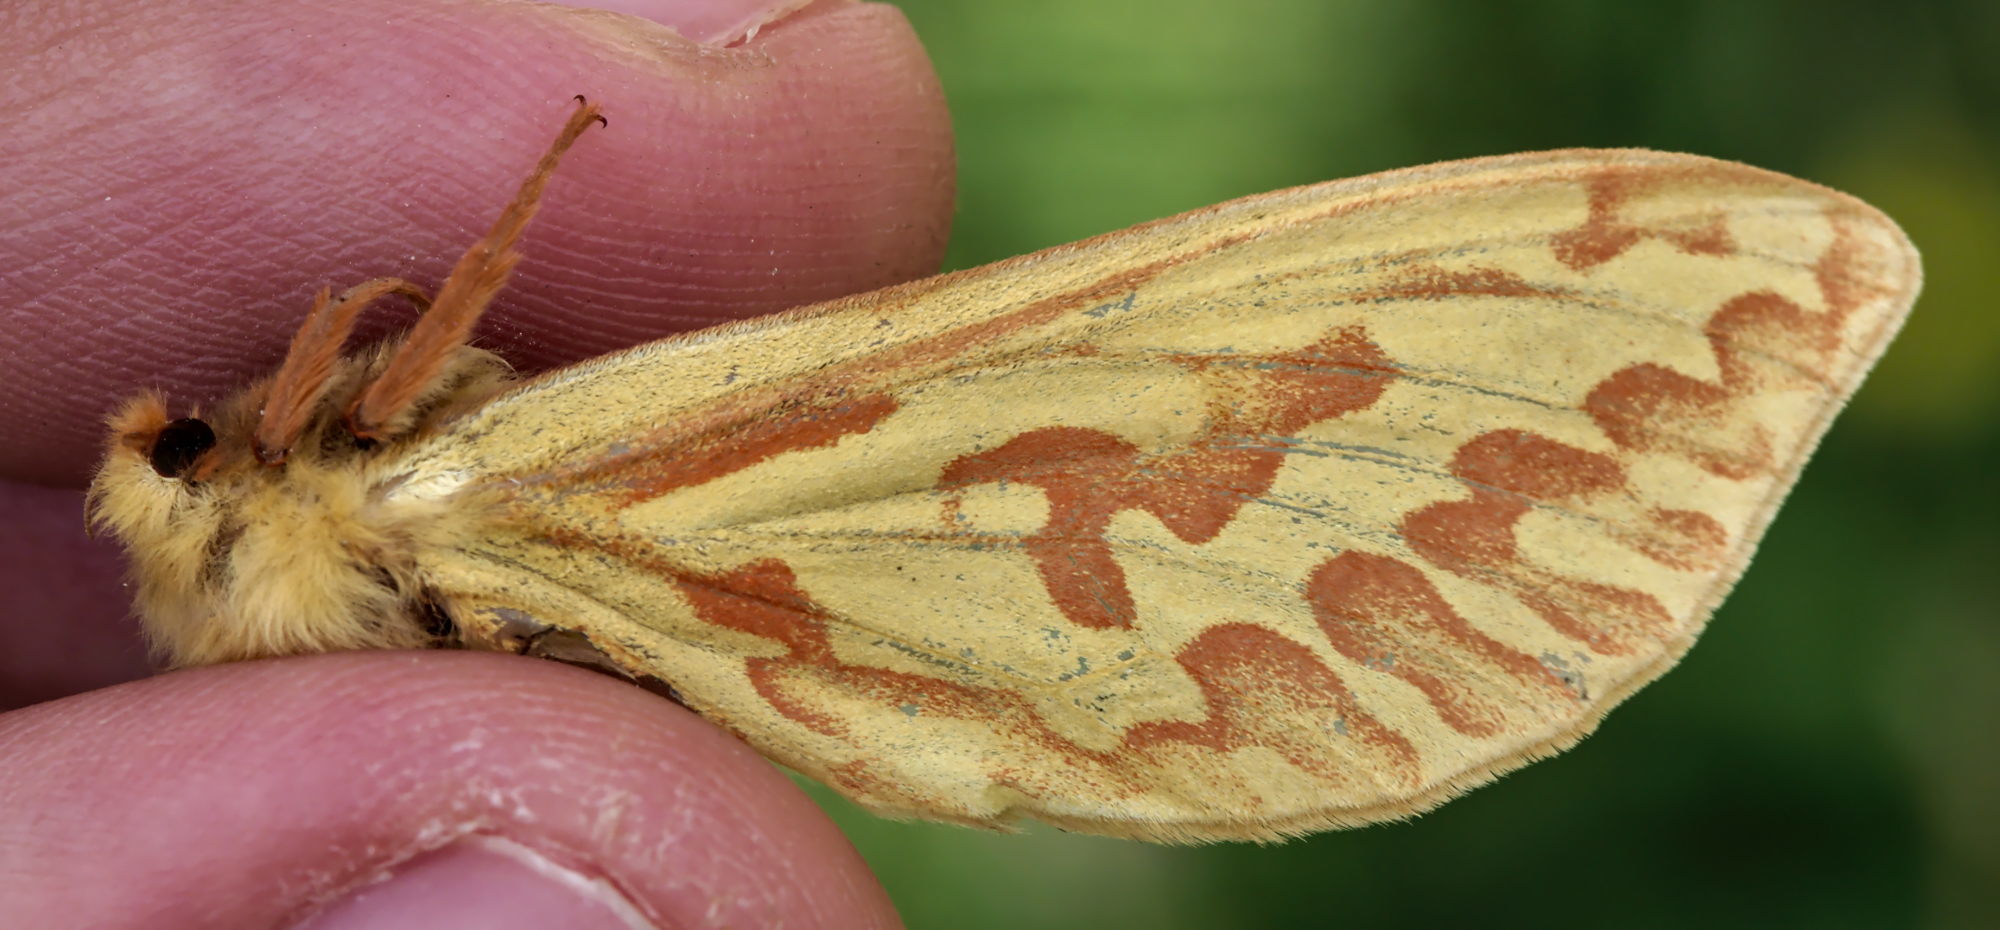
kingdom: Animalia
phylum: Arthropoda
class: Insecta
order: Lepidoptera
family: Hepialidae
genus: Hepialus
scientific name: Hepialus humuli
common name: Ghost moth
